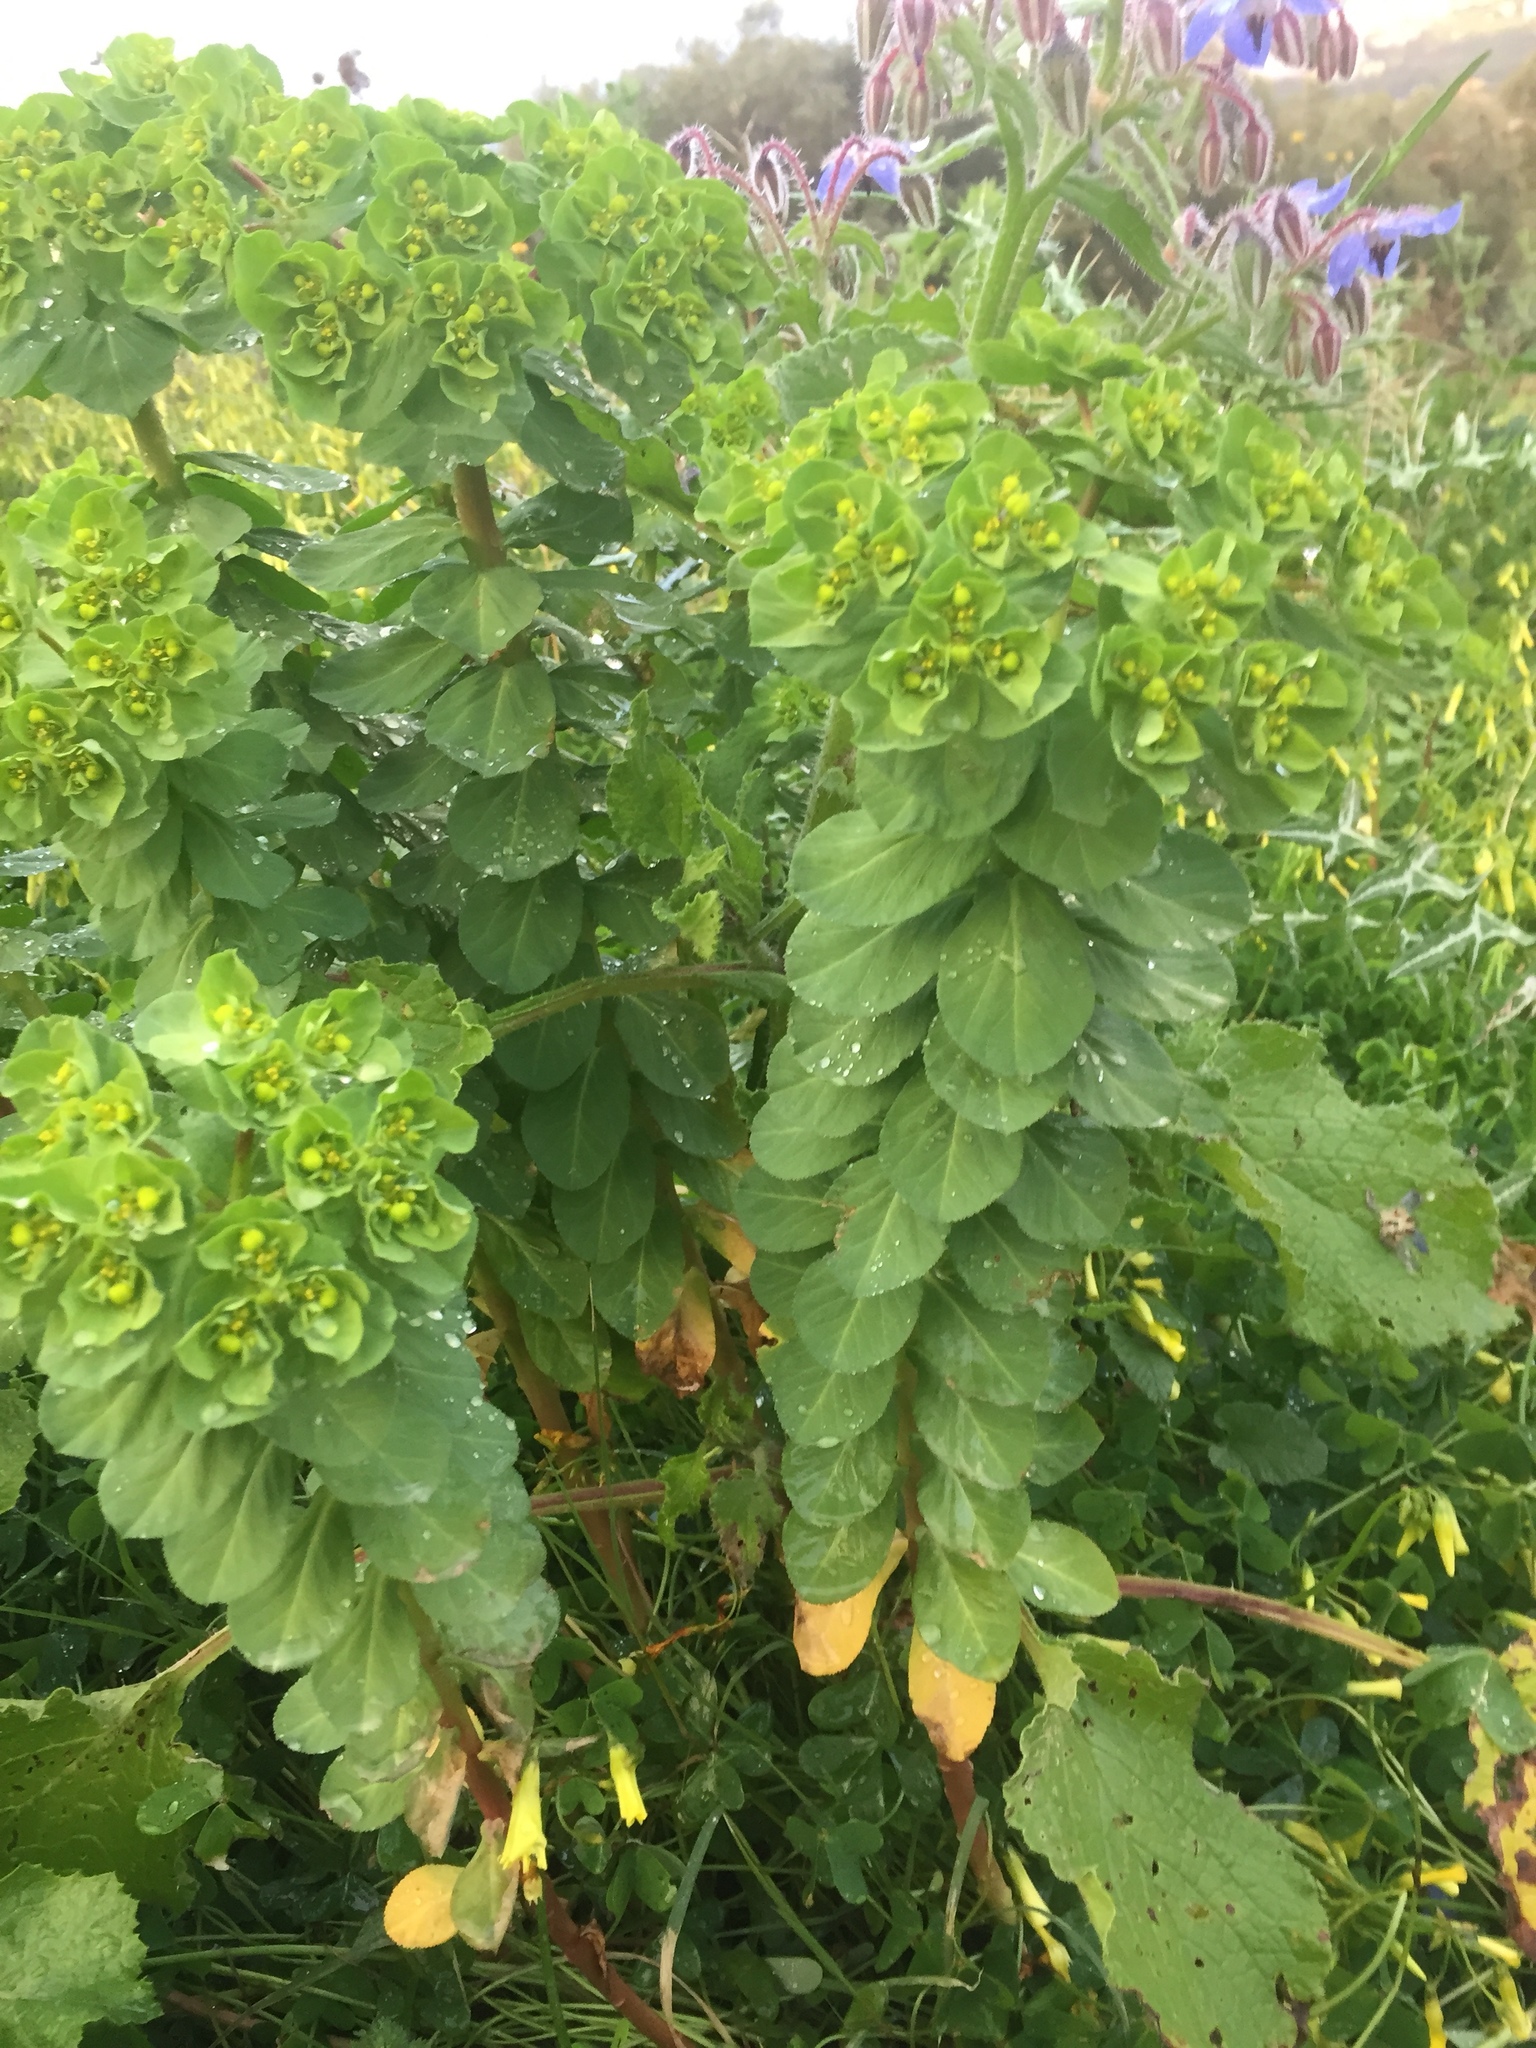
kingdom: Plantae
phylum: Tracheophyta
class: Magnoliopsida
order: Malpighiales
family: Euphorbiaceae
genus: Euphorbia
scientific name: Euphorbia helioscopia
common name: Sun spurge
